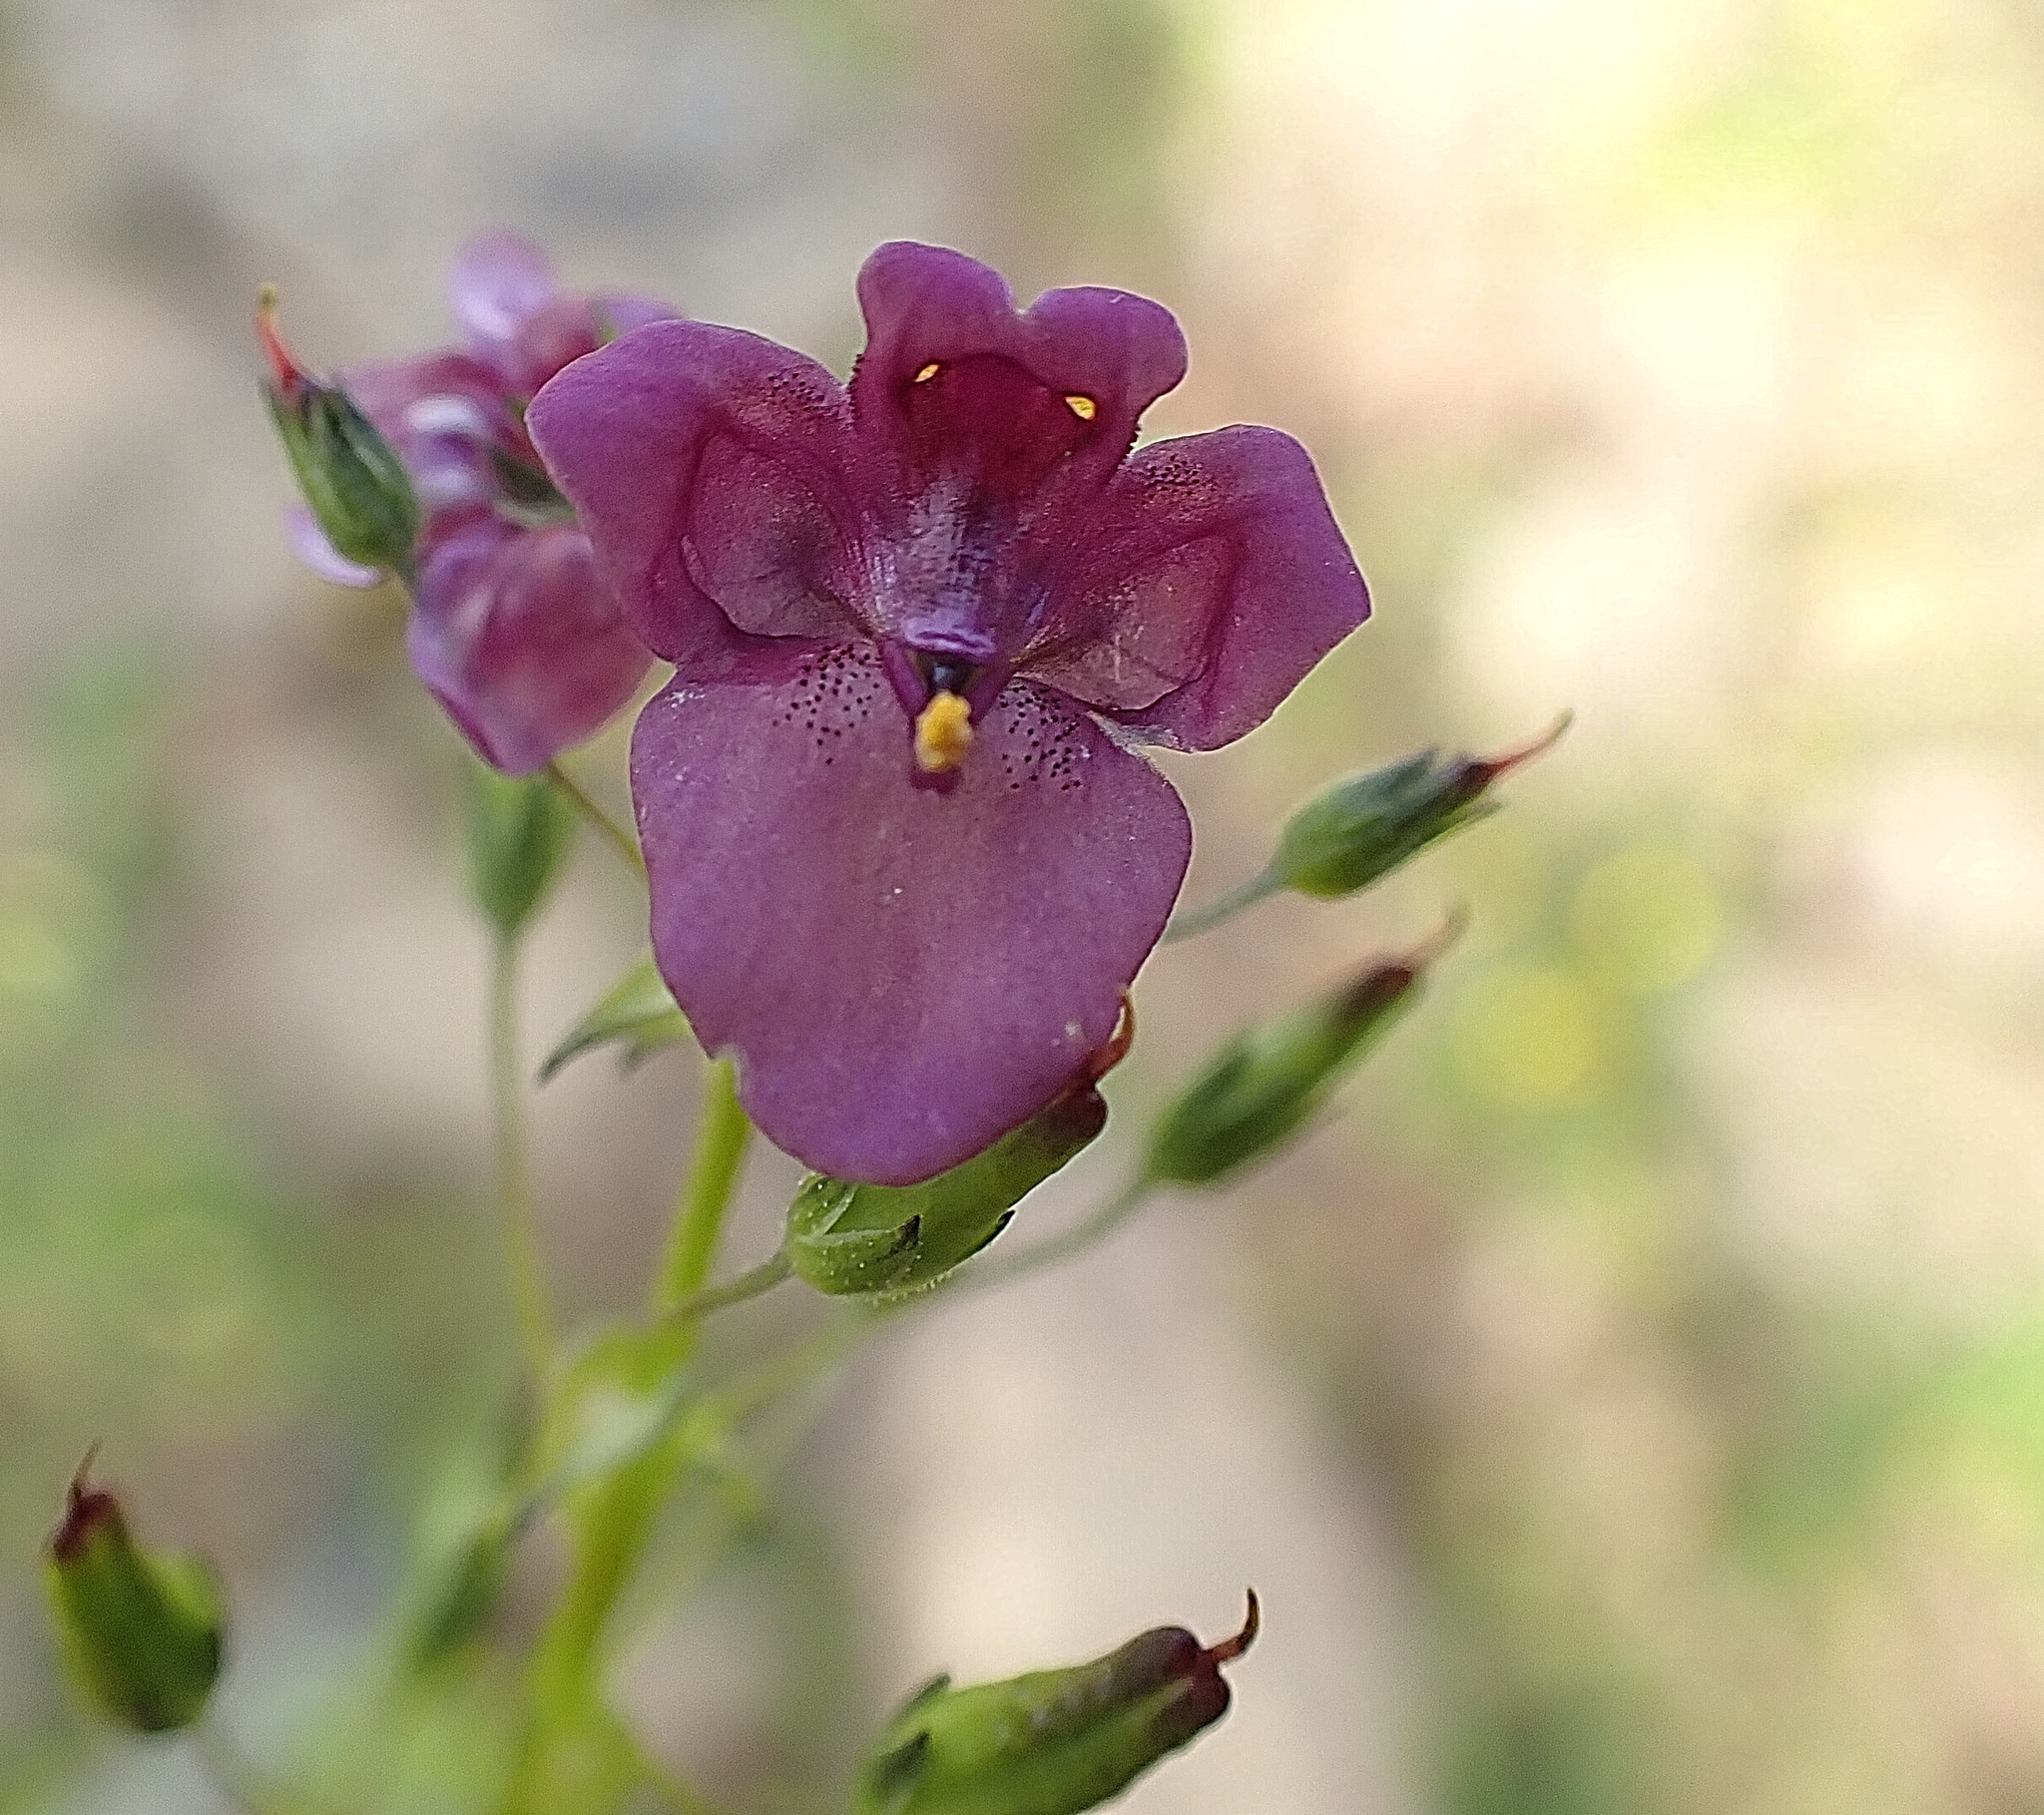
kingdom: Plantae
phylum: Tracheophyta
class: Magnoliopsida
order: Lamiales
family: Scrophulariaceae
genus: Diascia
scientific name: Diascia parviflora
